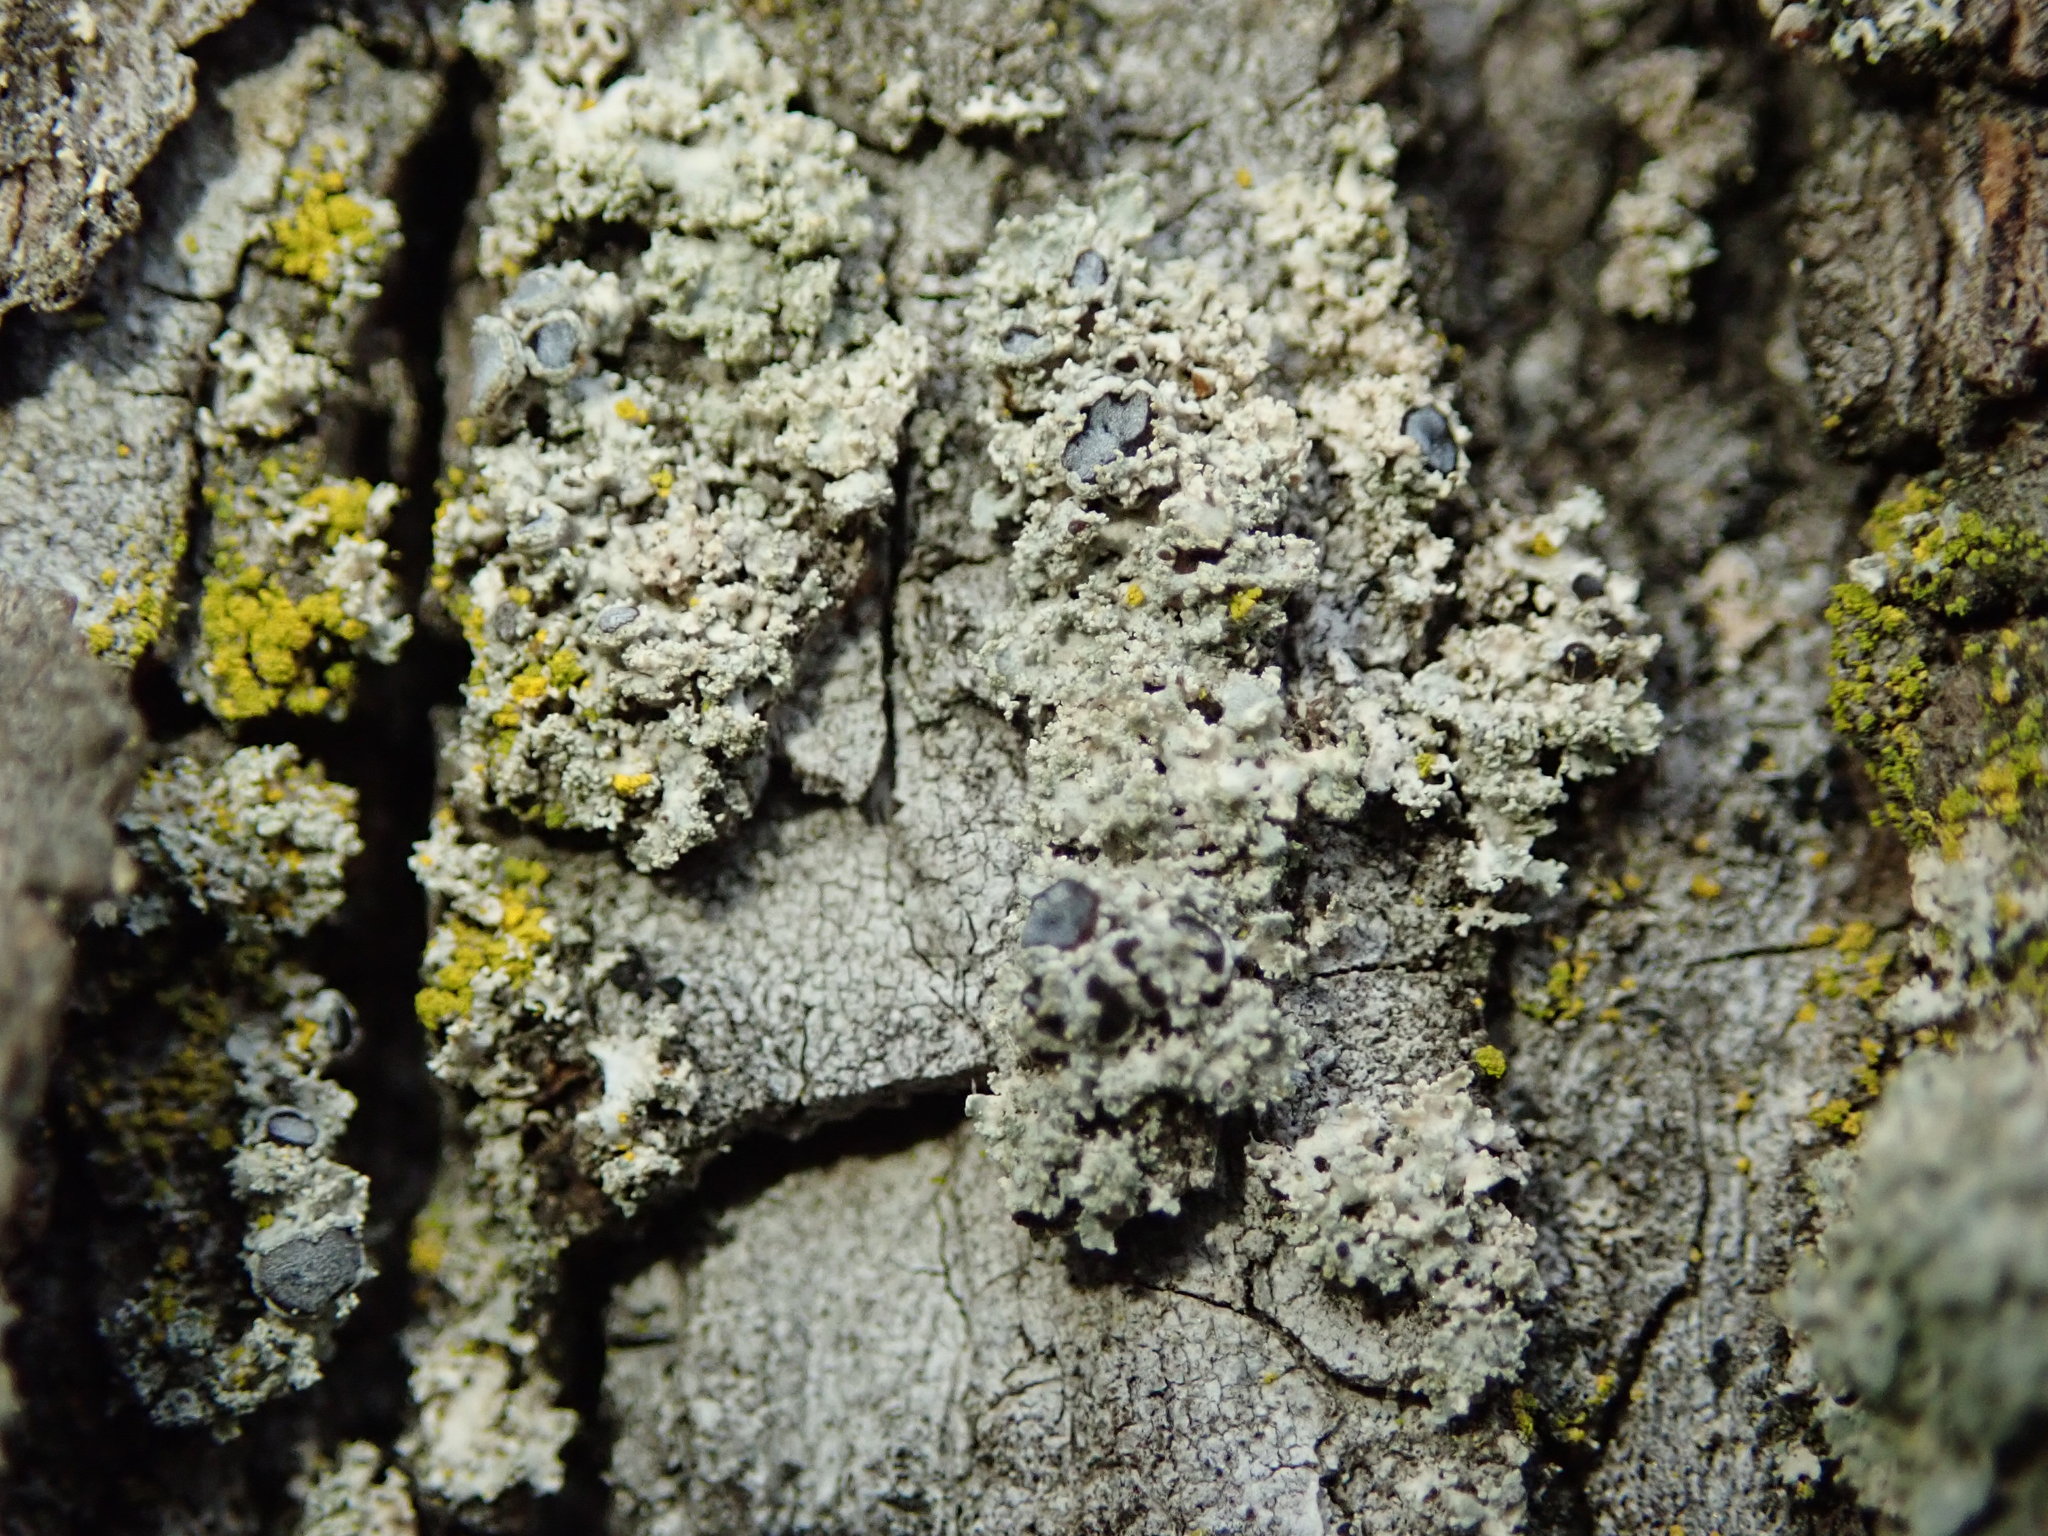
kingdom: Fungi
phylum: Ascomycota
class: Lecanoromycetes
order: Caliciales
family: Physciaceae
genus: Physcia
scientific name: Physcia millegrana
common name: Rosette lichen
